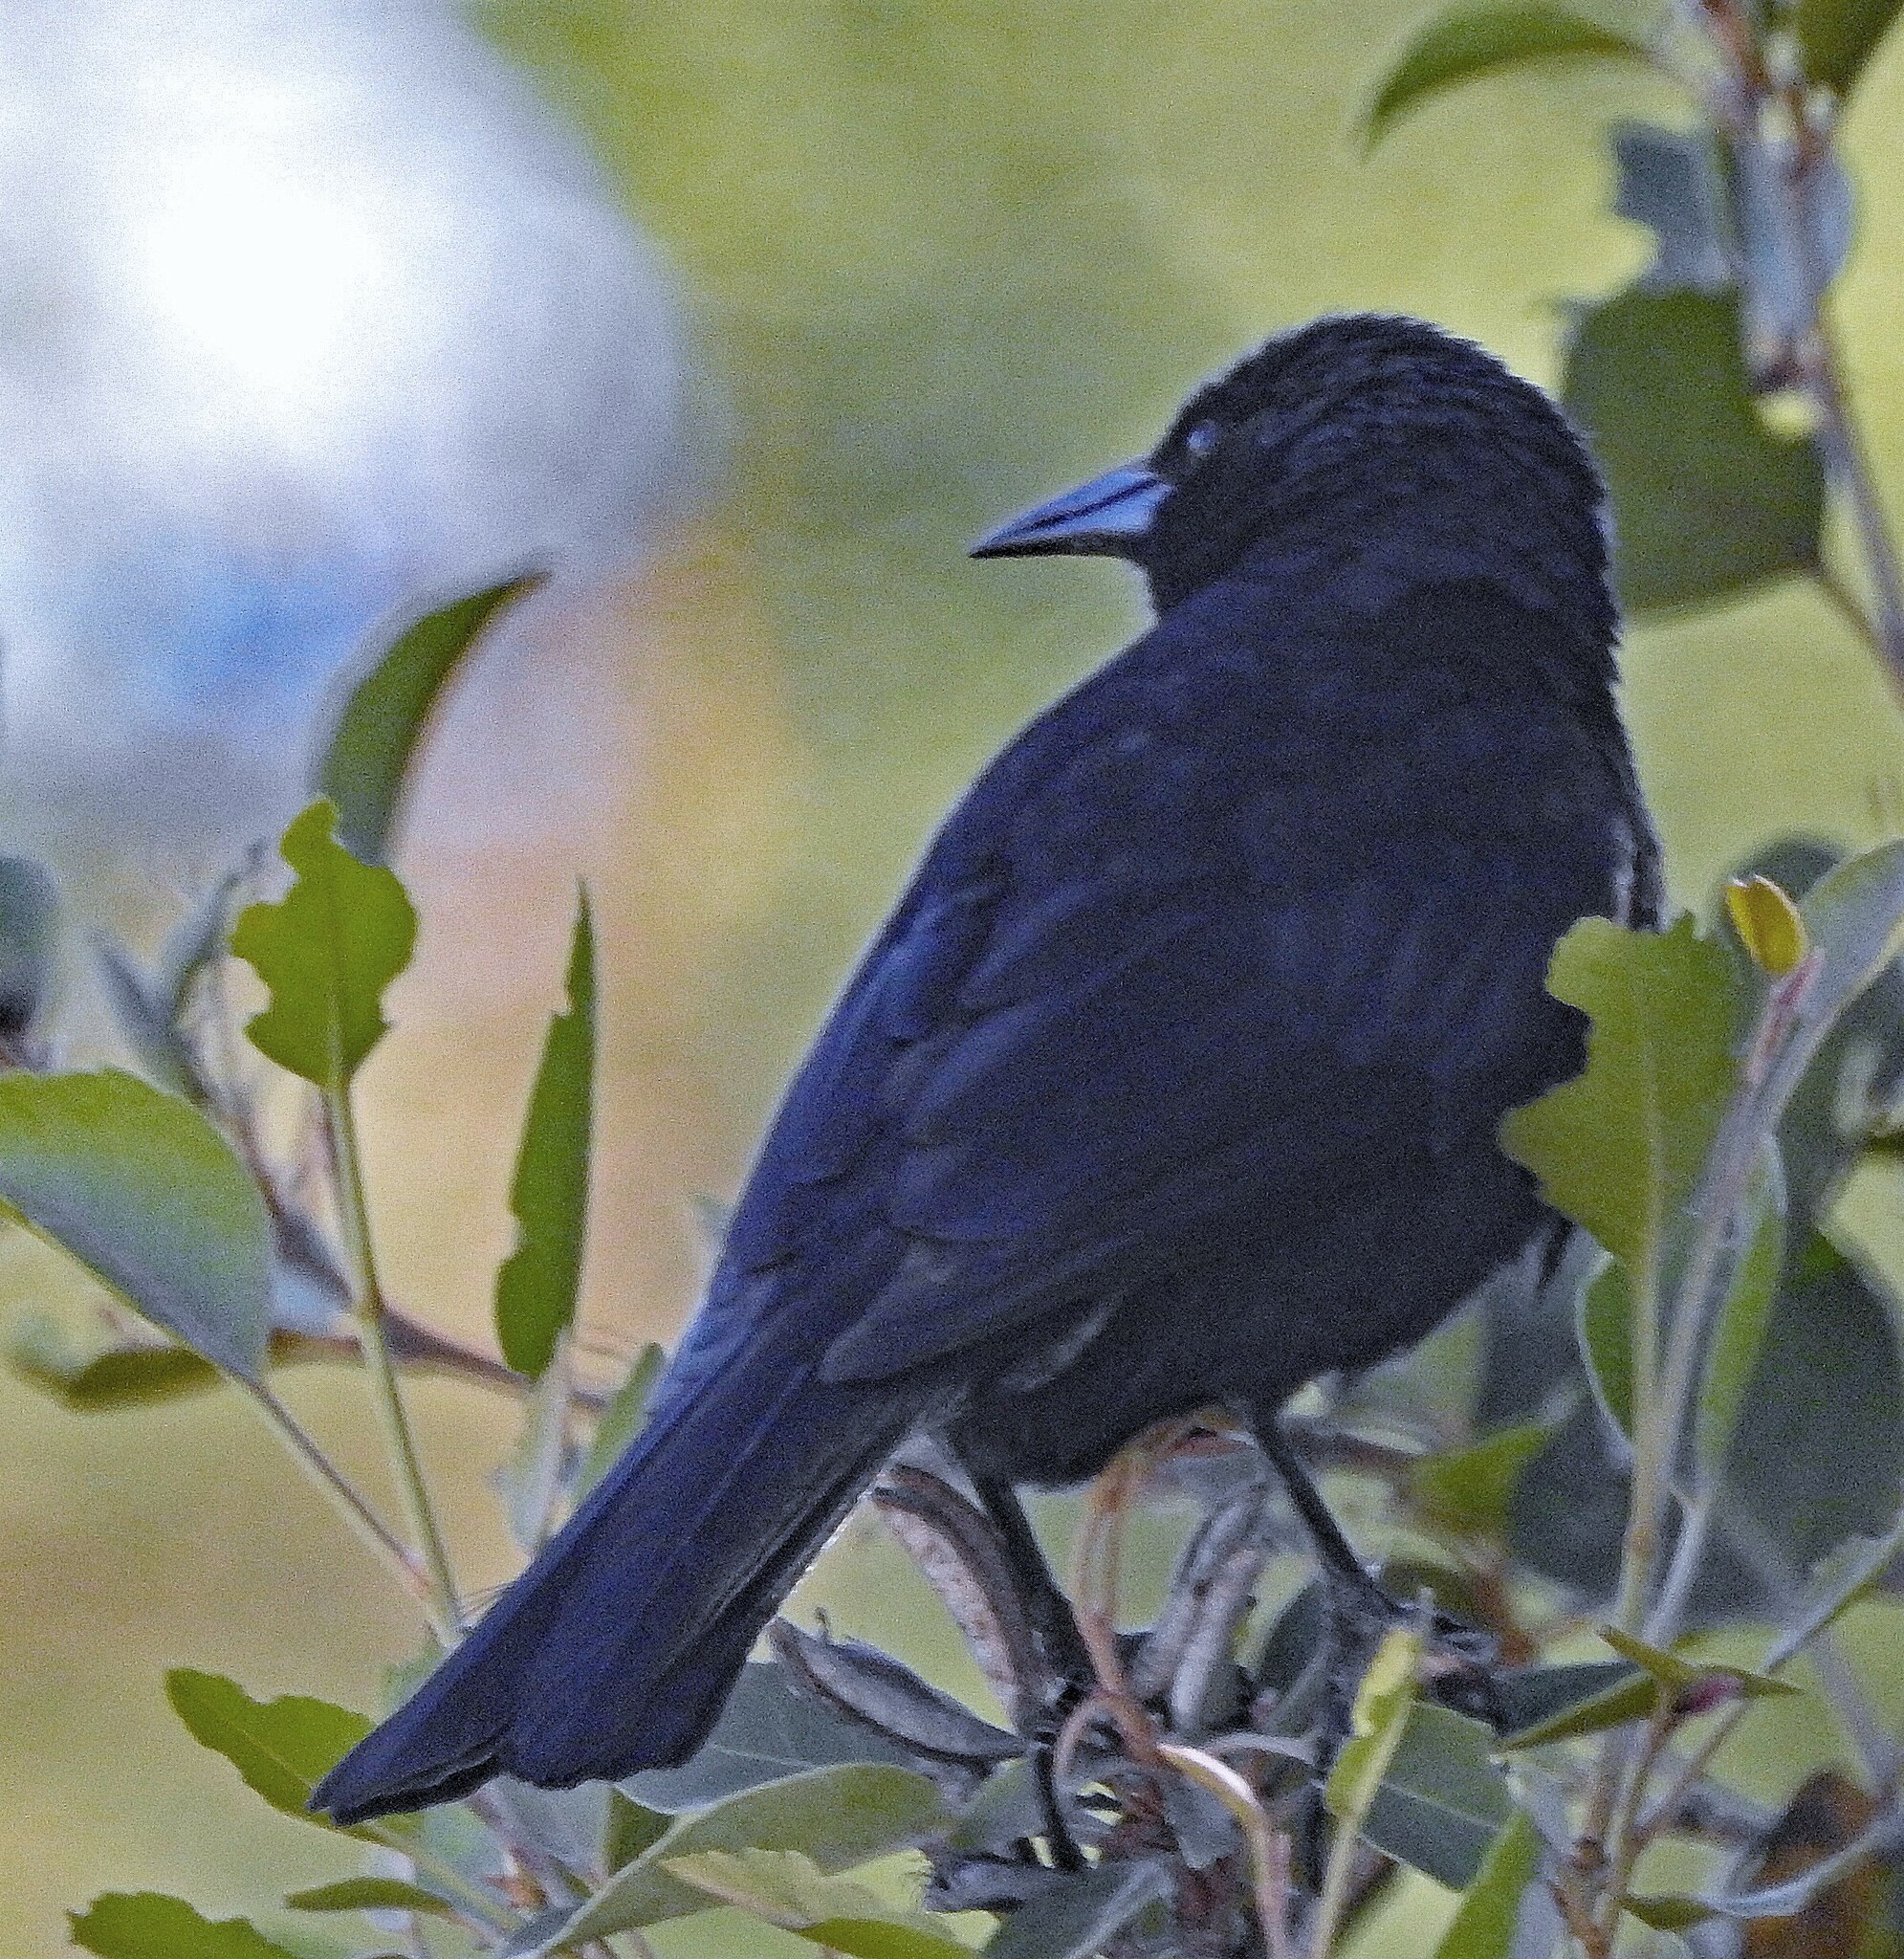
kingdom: Animalia
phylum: Chordata
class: Aves
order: Passeriformes
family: Icteridae
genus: Curaeus
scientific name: Curaeus curaeus
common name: Austral blackbird
